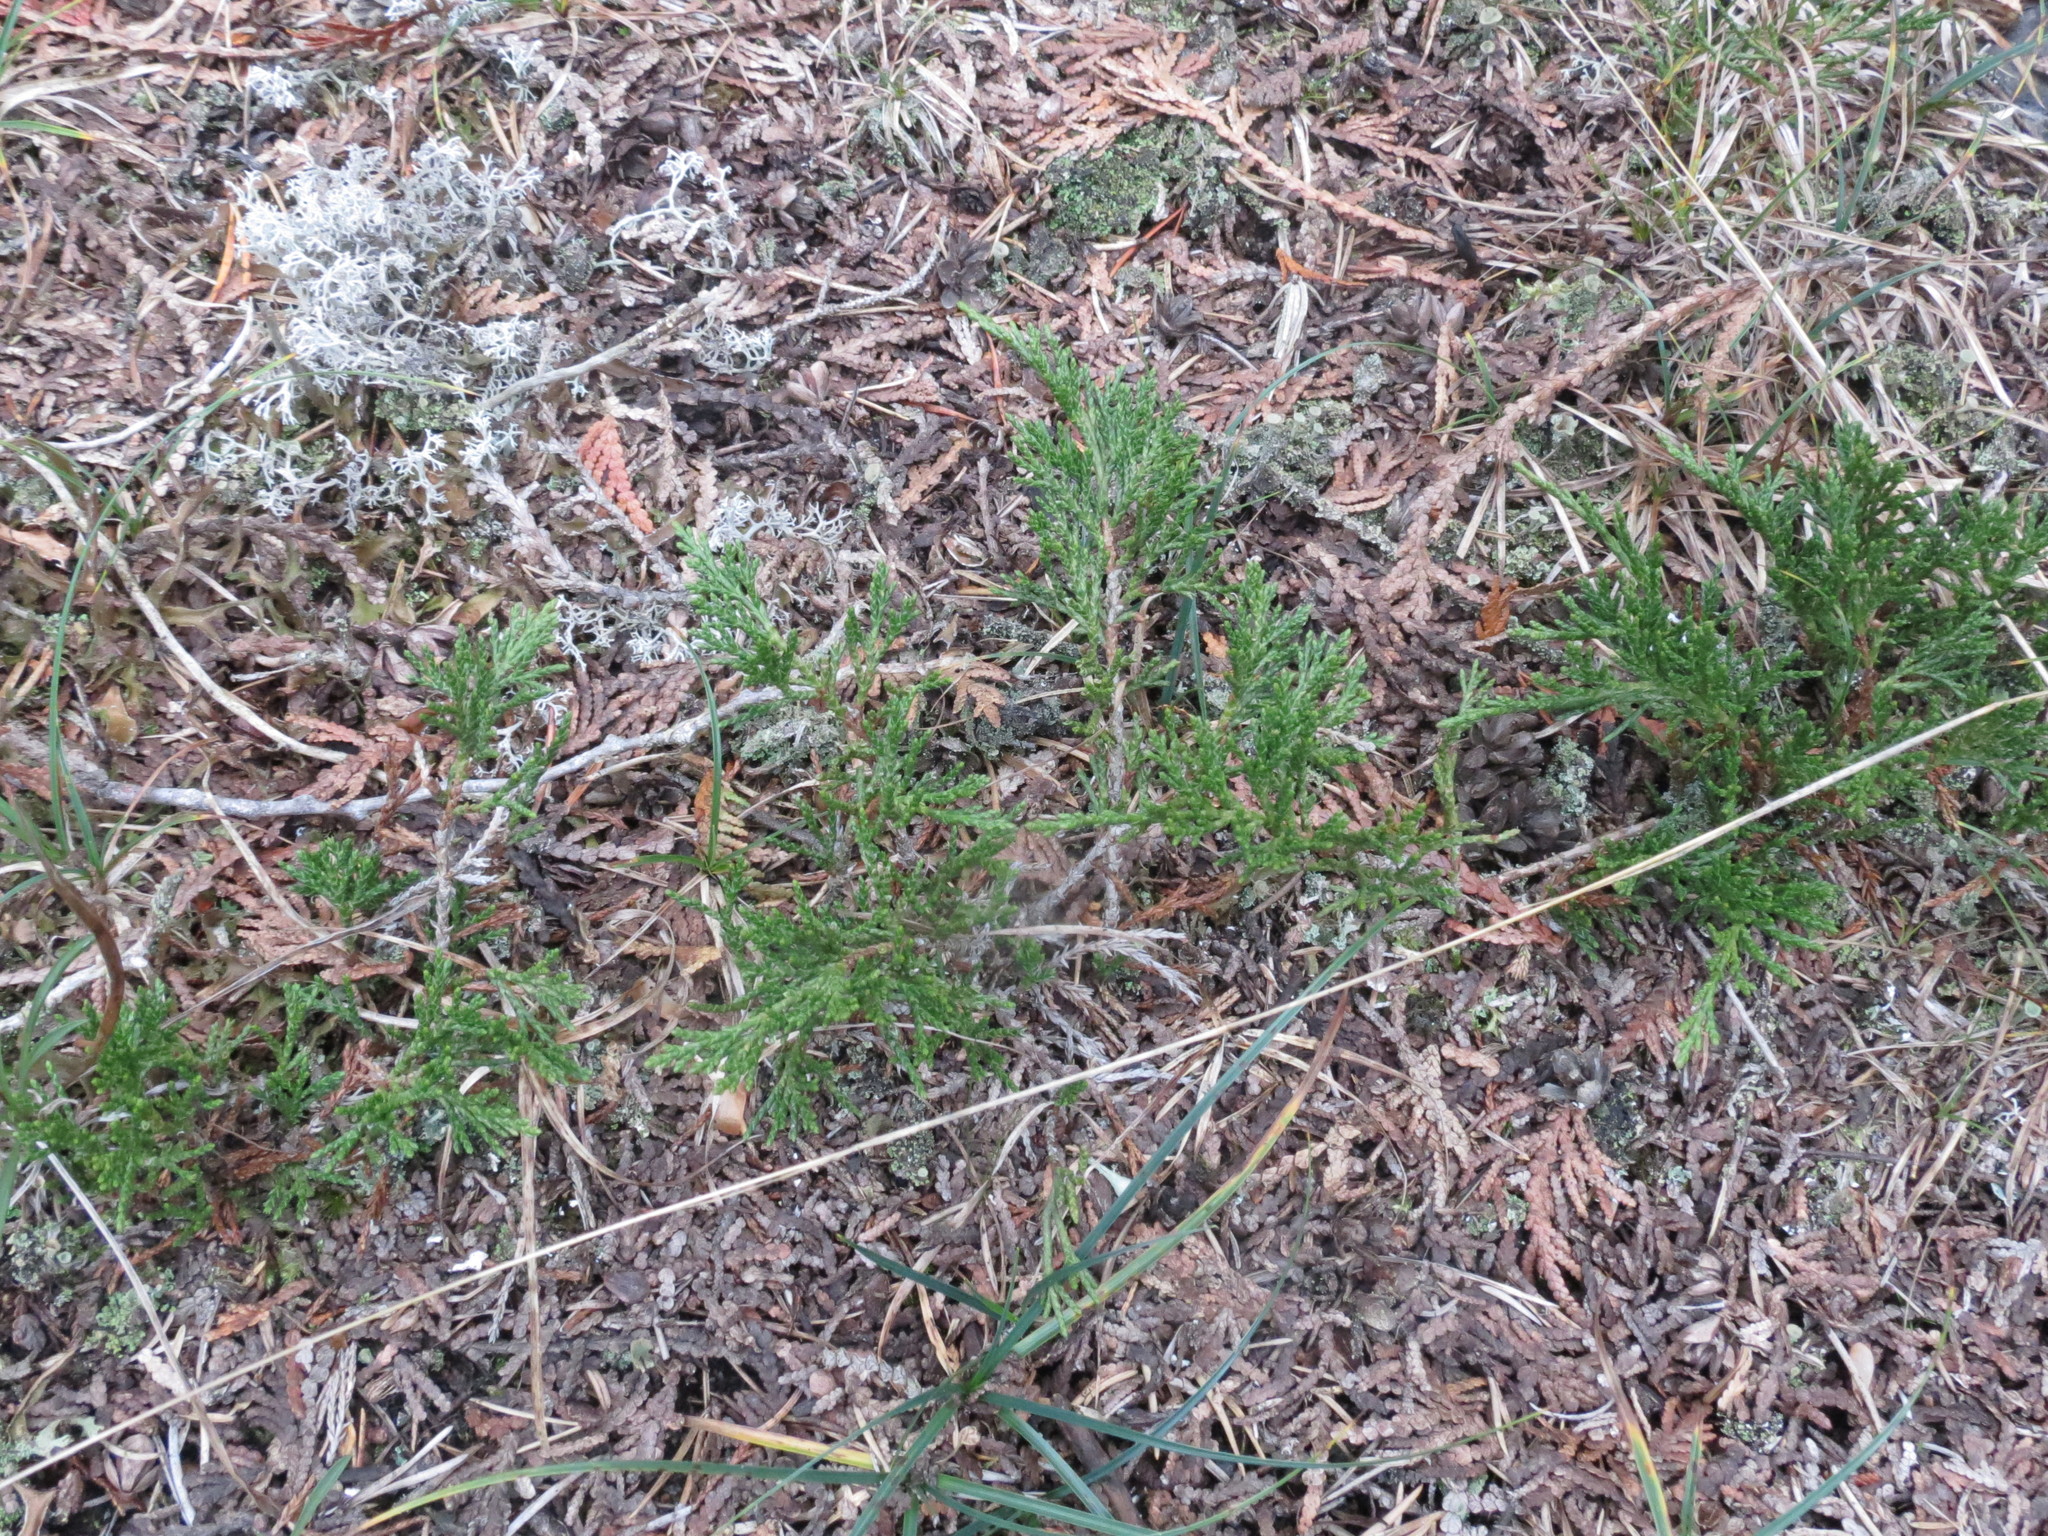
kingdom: Plantae
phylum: Tracheophyta
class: Pinopsida
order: Pinales
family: Cupressaceae
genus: Juniperus
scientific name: Juniperus horizontalis
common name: Creeping juniper
